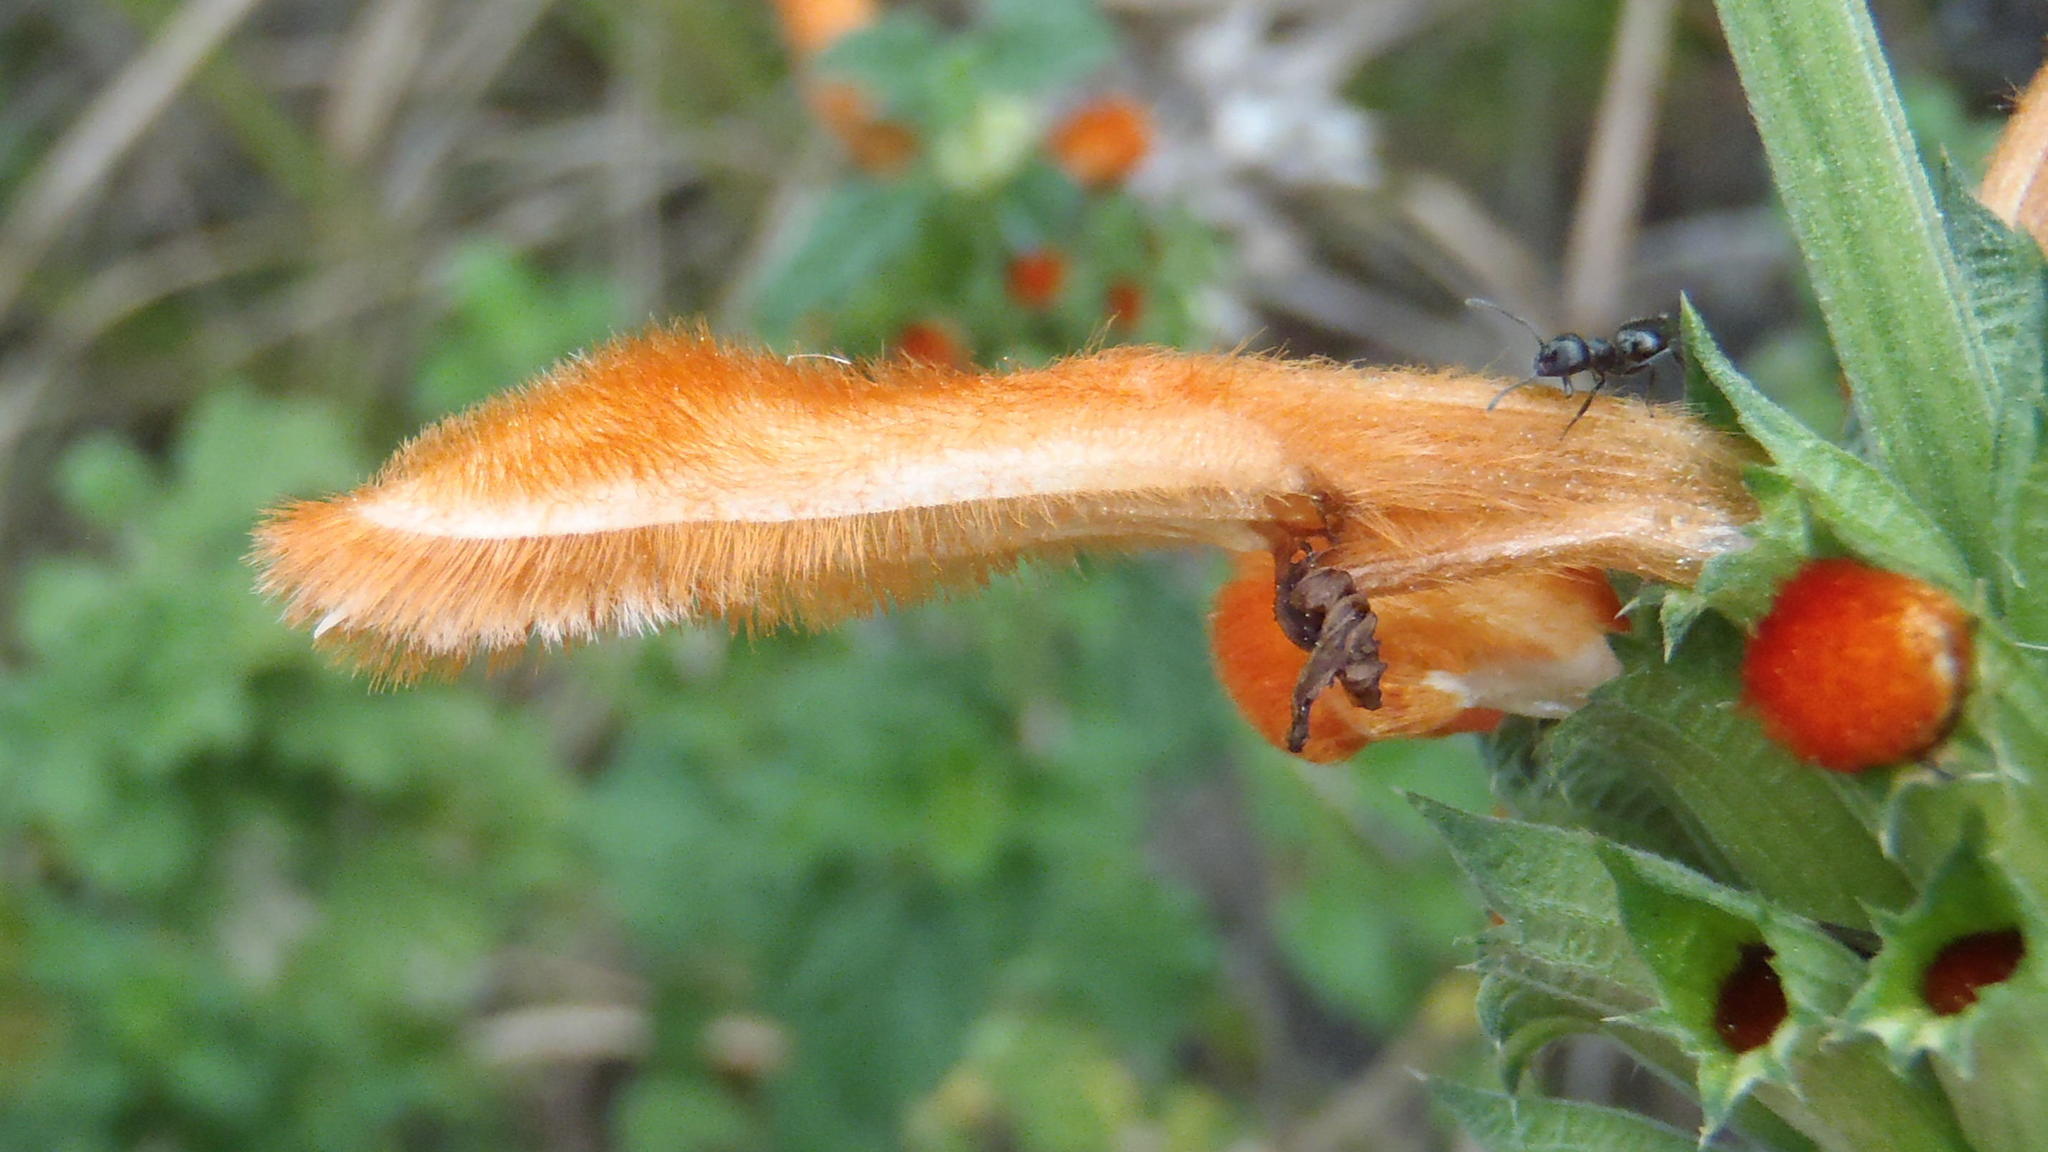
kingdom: Plantae
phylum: Tracheophyta
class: Magnoliopsida
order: Lamiales
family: Lamiaceae
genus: Leonotis
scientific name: Leonotis ocymifolia
